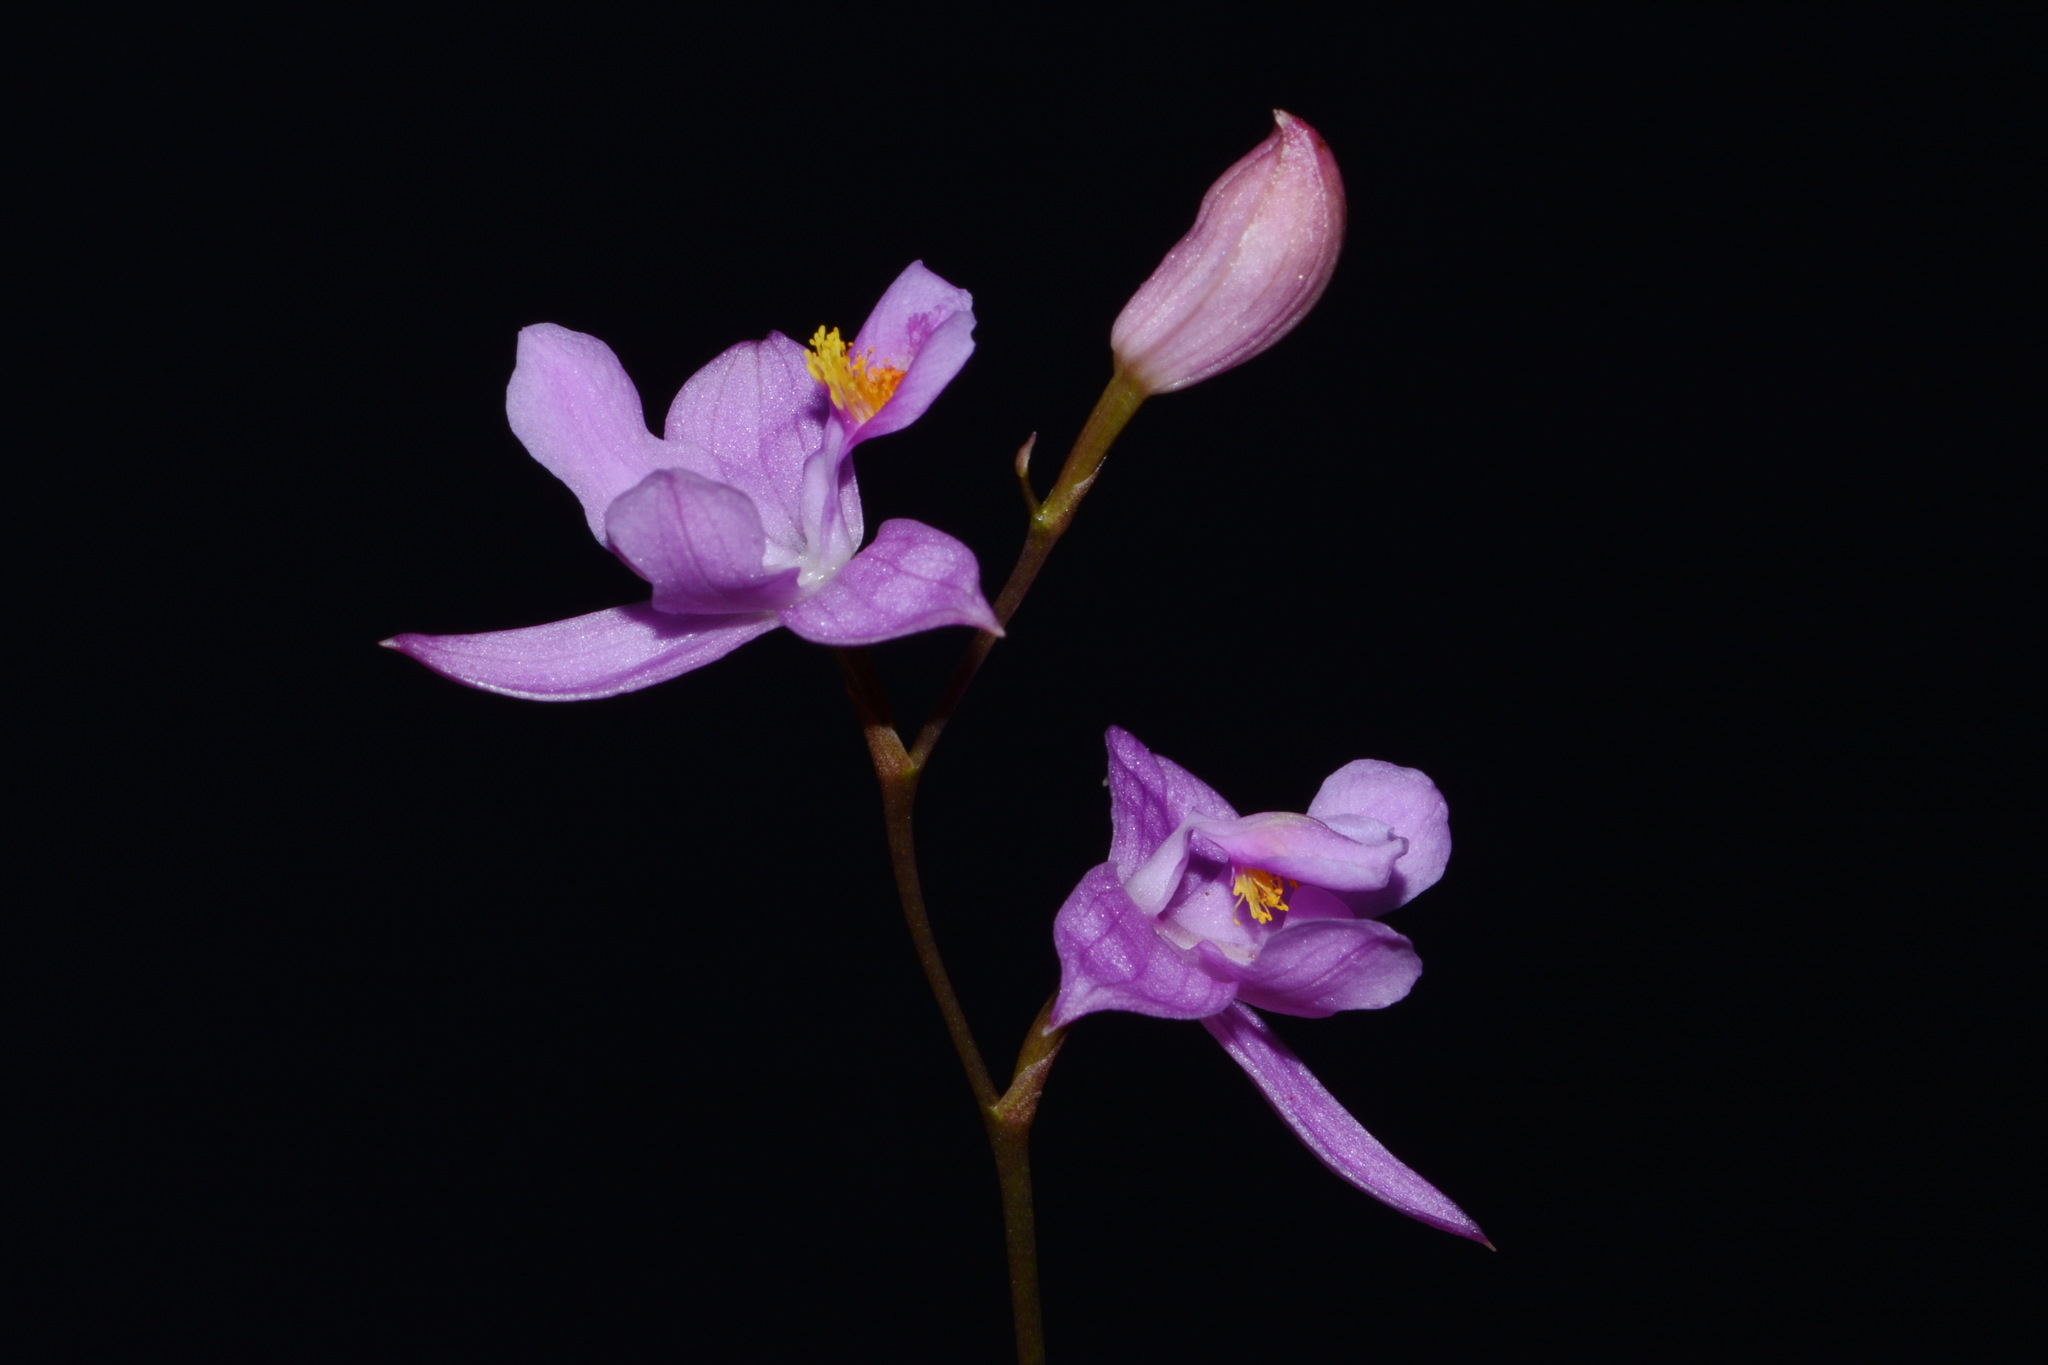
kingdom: Plantae
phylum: Tracheophyta
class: Liliopsida
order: Asparagales
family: Orchidaceae
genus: Calopogon
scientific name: Calopogon barbatus
